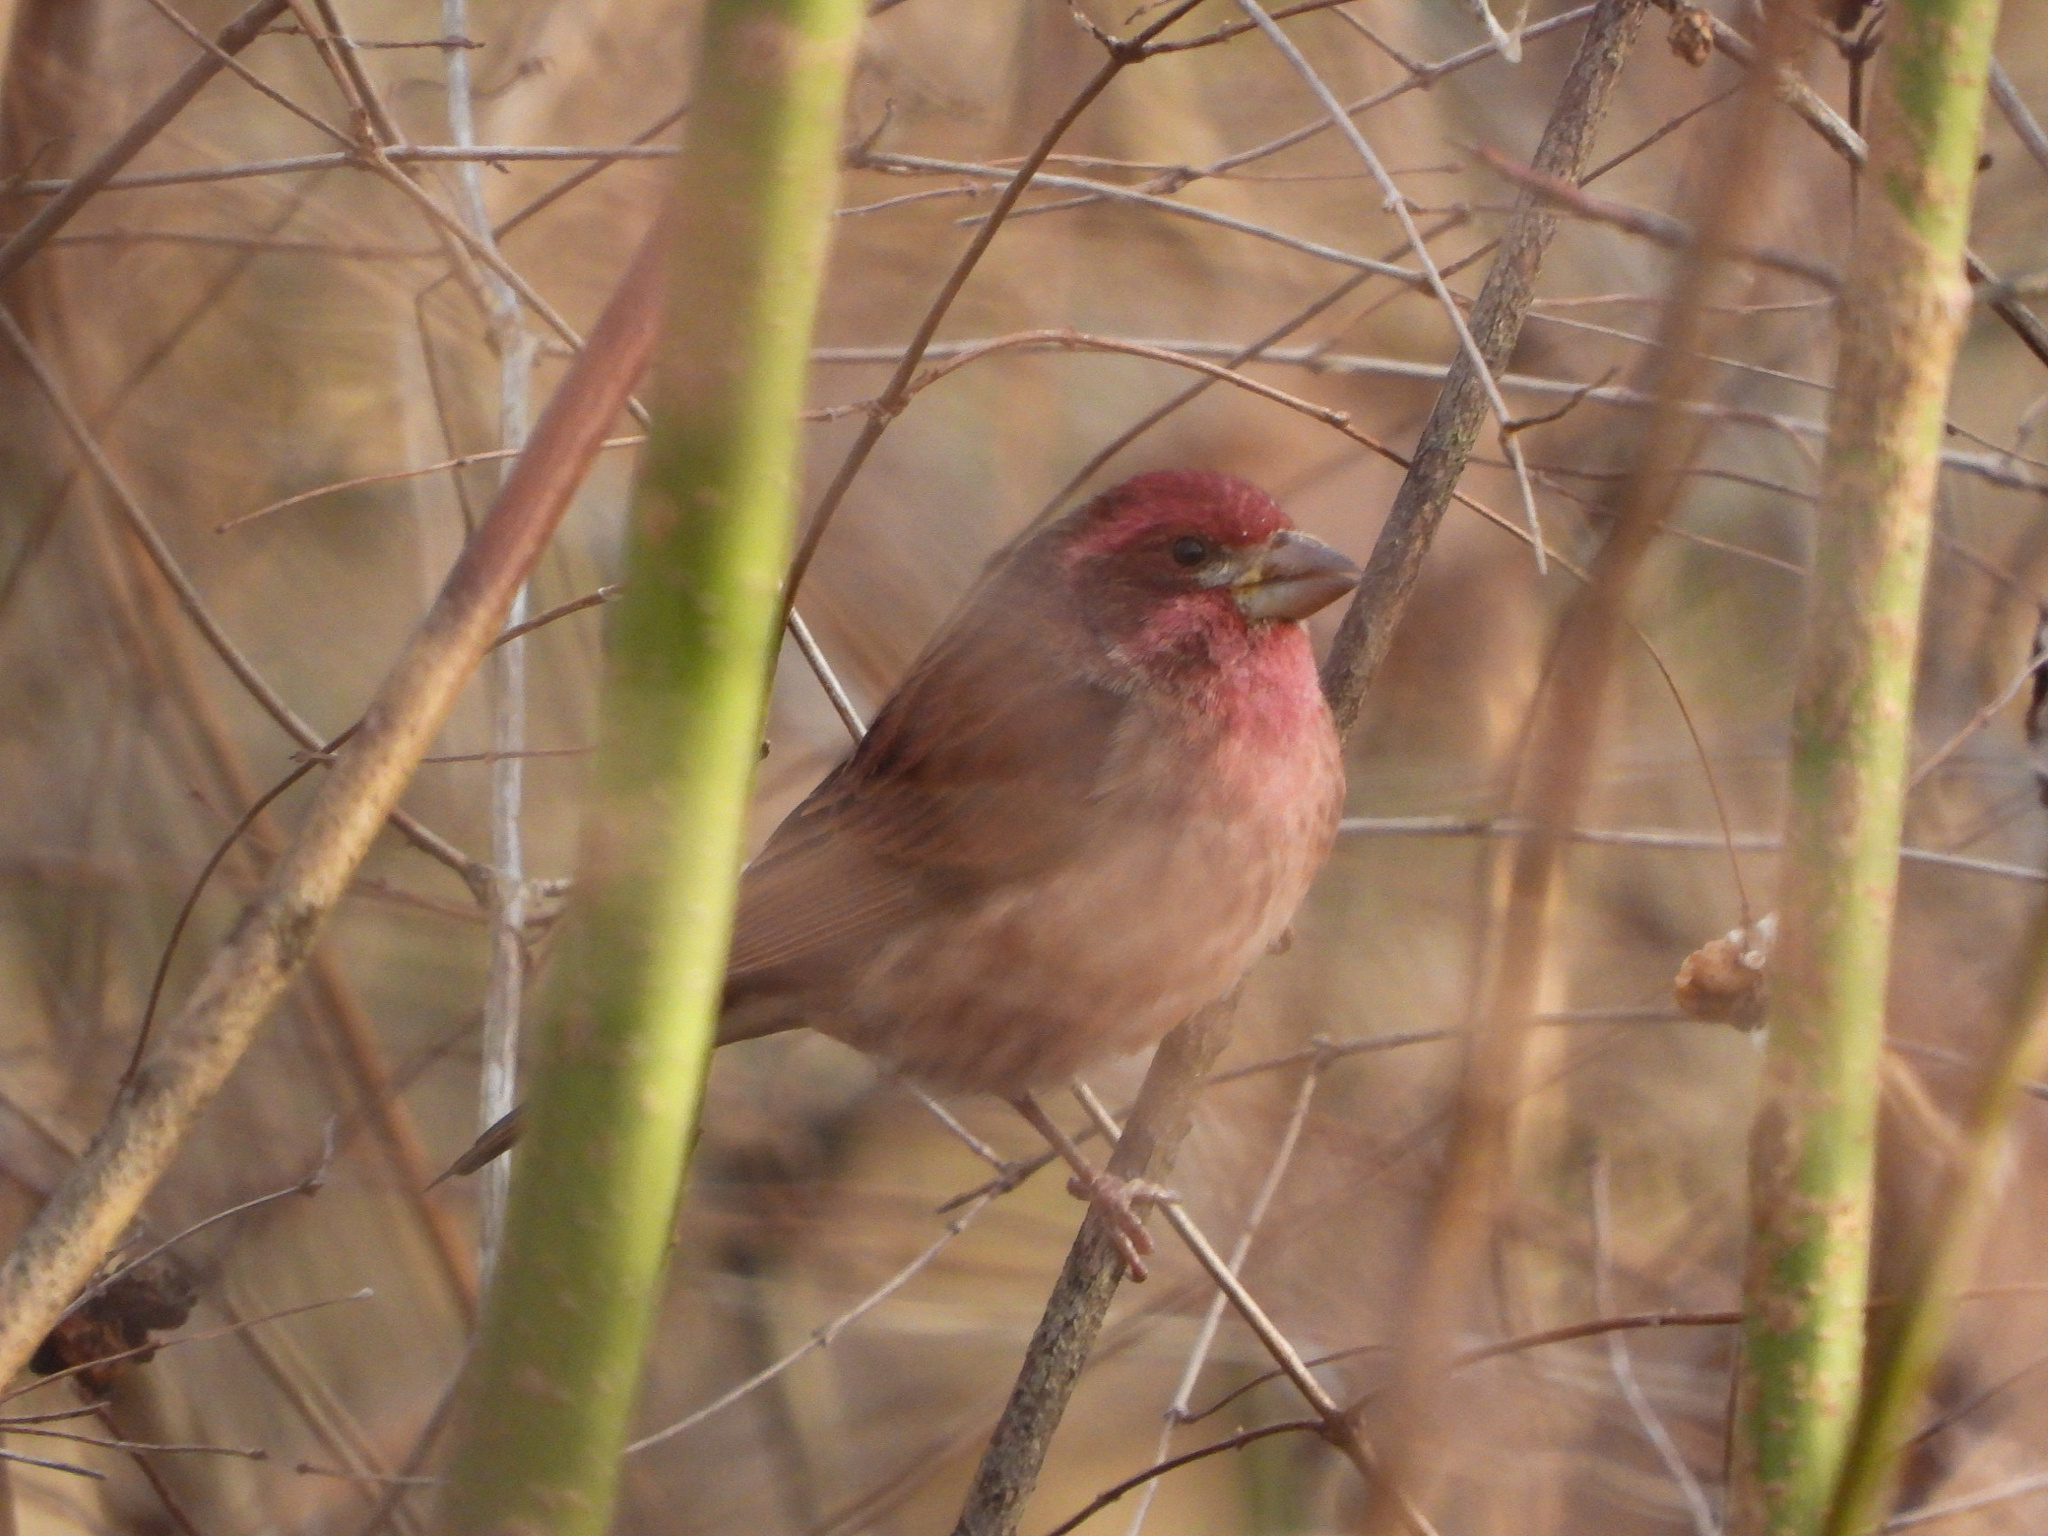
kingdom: Animalia
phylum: Chordata
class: Aves
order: Passeriformes
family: Fringillidae
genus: Haemorhous
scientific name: Haemorhous purpureus
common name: Purple finch
